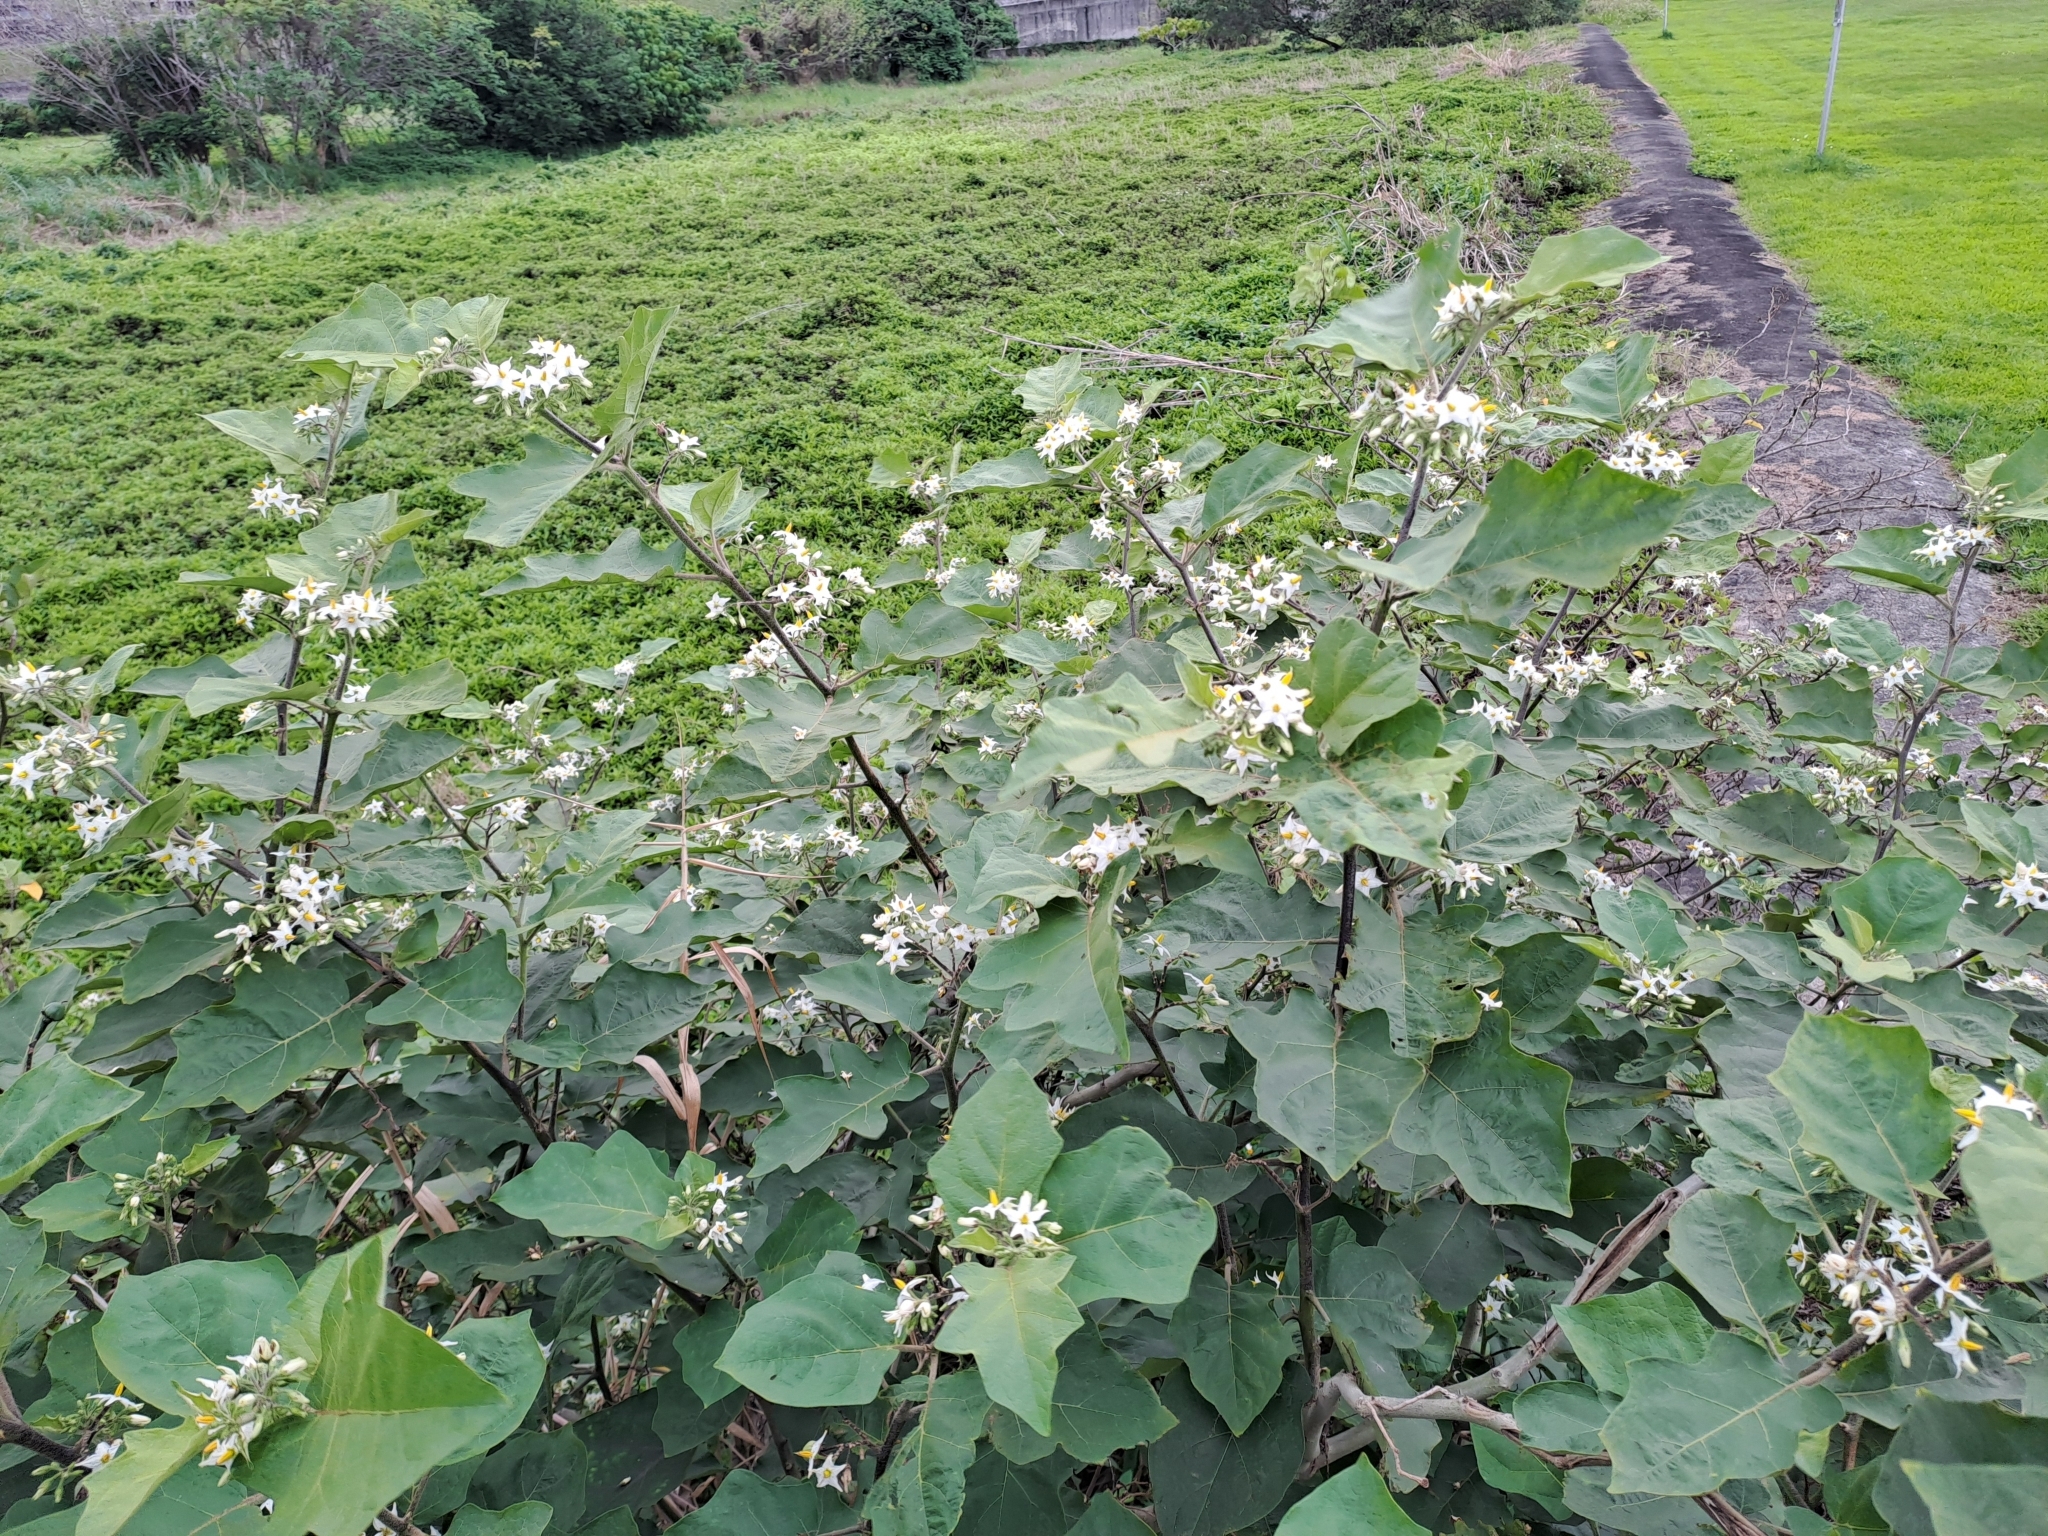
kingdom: Plantae
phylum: Tracheophyta
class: Magnoliopsida
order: Solanales
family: Solanaceae
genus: Solanum
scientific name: Solanum torvum
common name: Turkey berry
